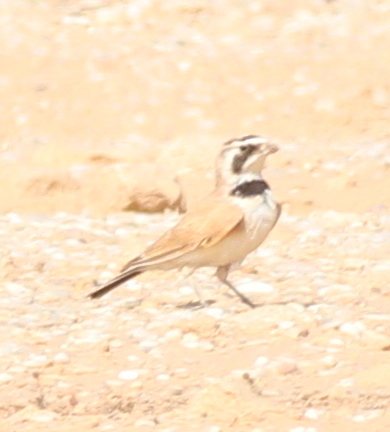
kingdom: Animalia
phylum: Chordata
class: Aves
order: Passeriformes
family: Alaudidae
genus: Eremophila
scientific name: Eremophila bilopha
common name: Temminck's lark
